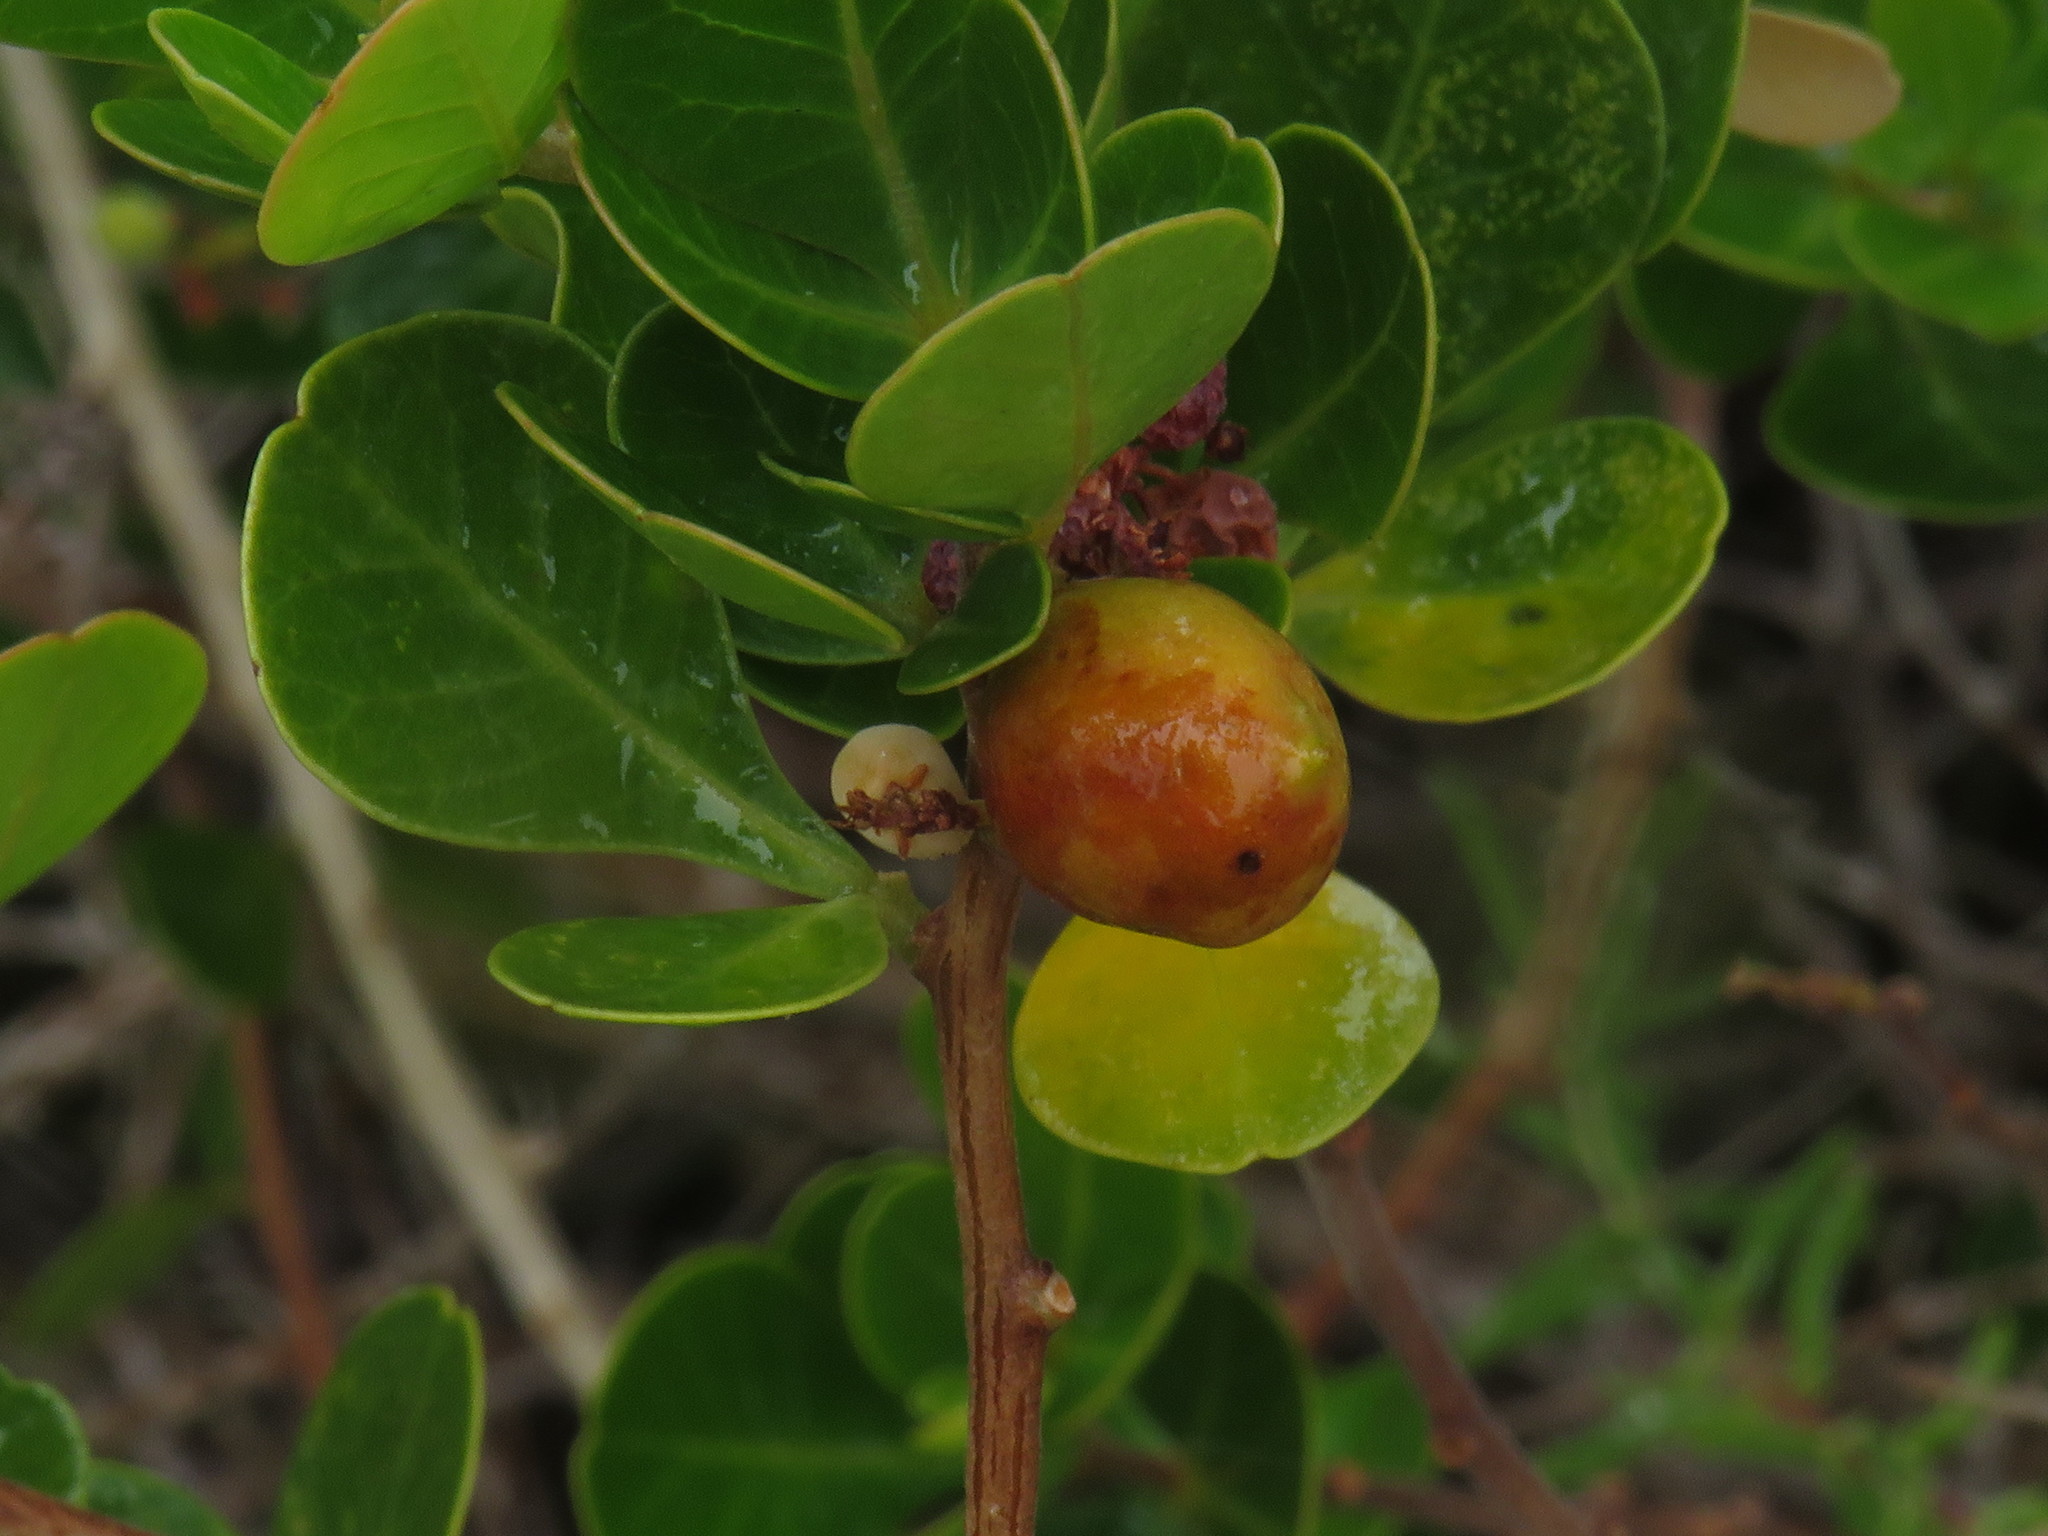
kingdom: Plantae
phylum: Tracheophyta
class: Magnoliopsida
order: Sapindales
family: Anacardiaceae
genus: Searsia
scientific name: Searsia lucida
